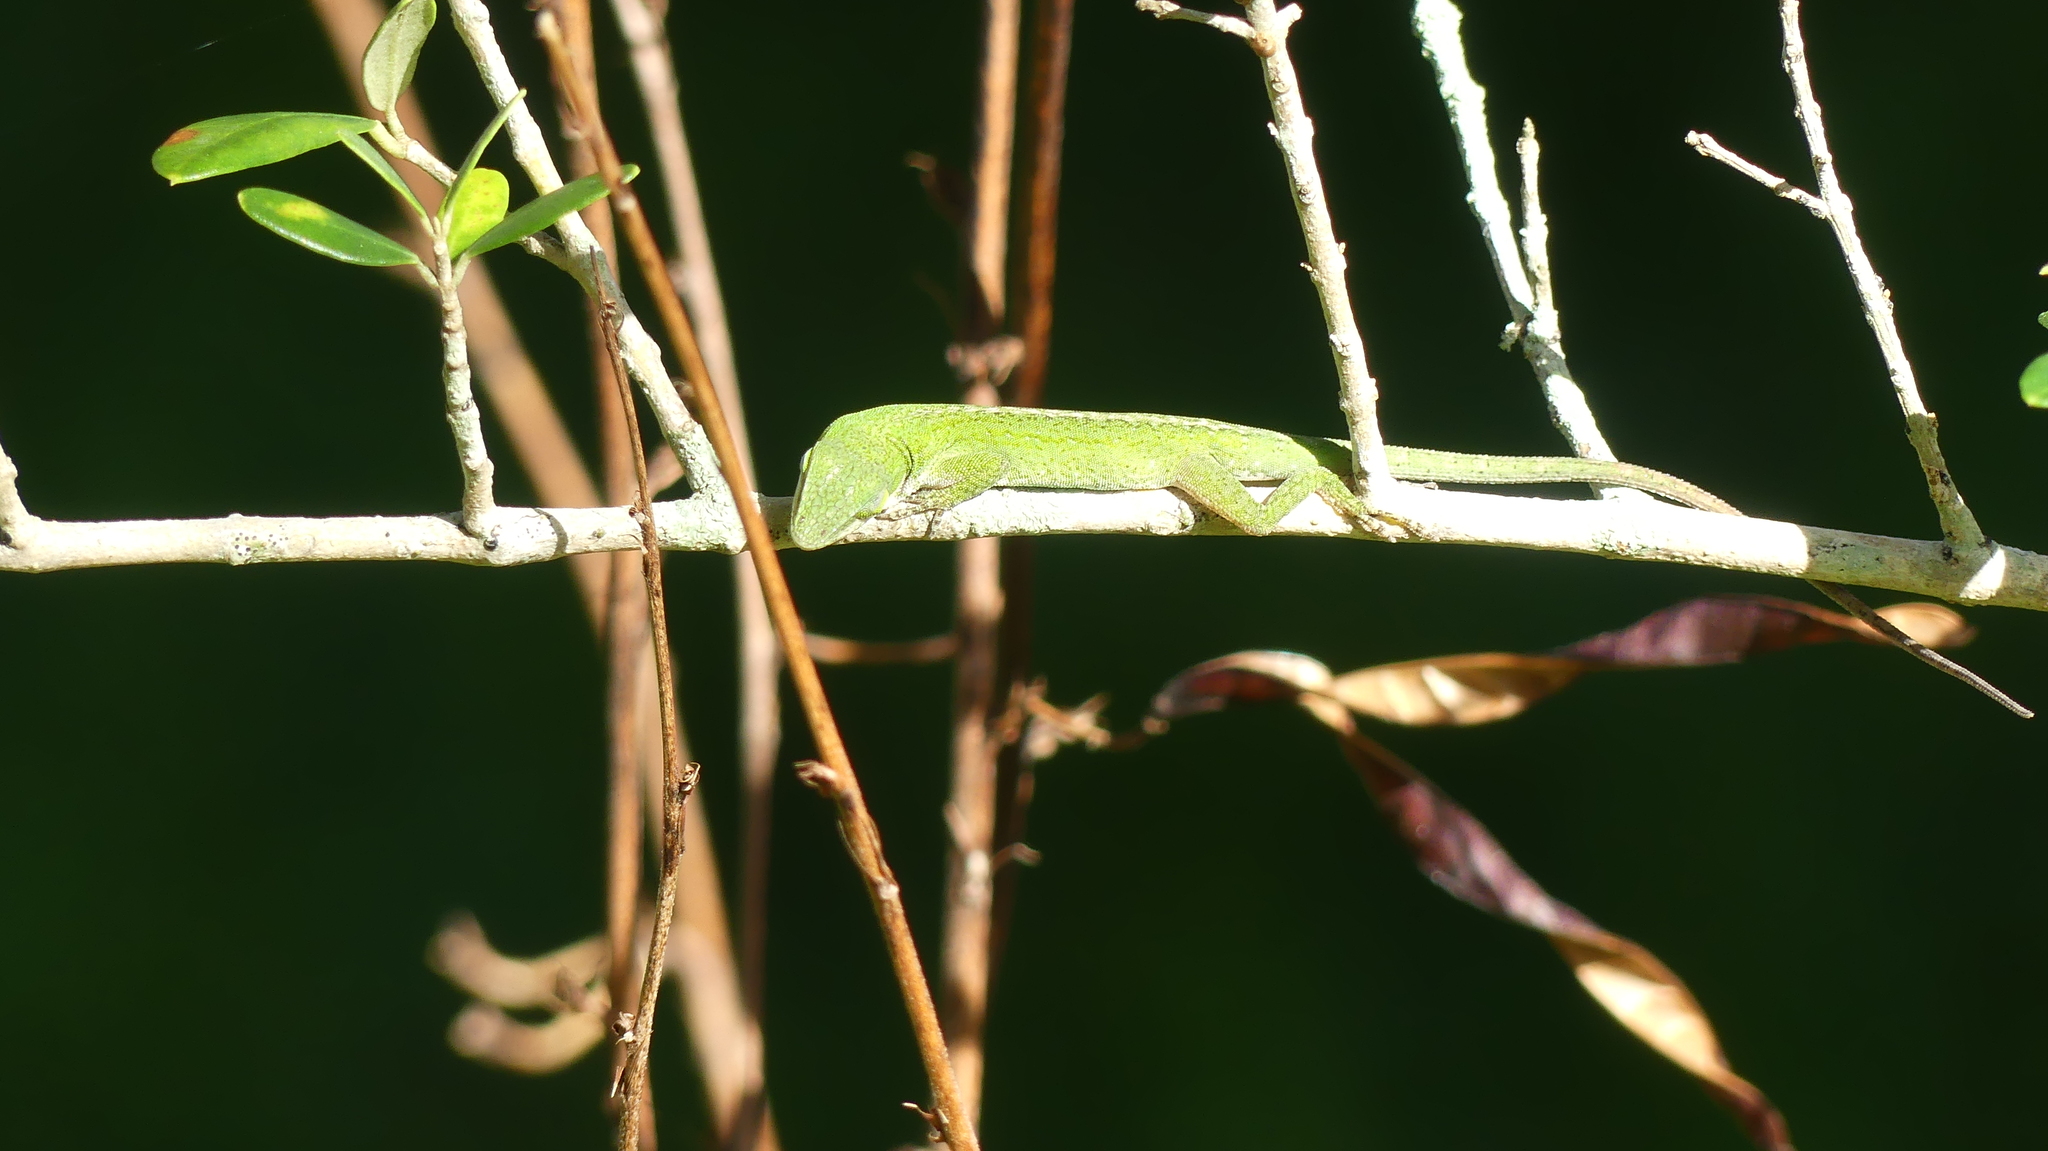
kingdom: Animalia
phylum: Chordata
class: Squamata
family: Dactyloidae
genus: Anolis
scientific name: Anolis carolinensis
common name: Green anole
